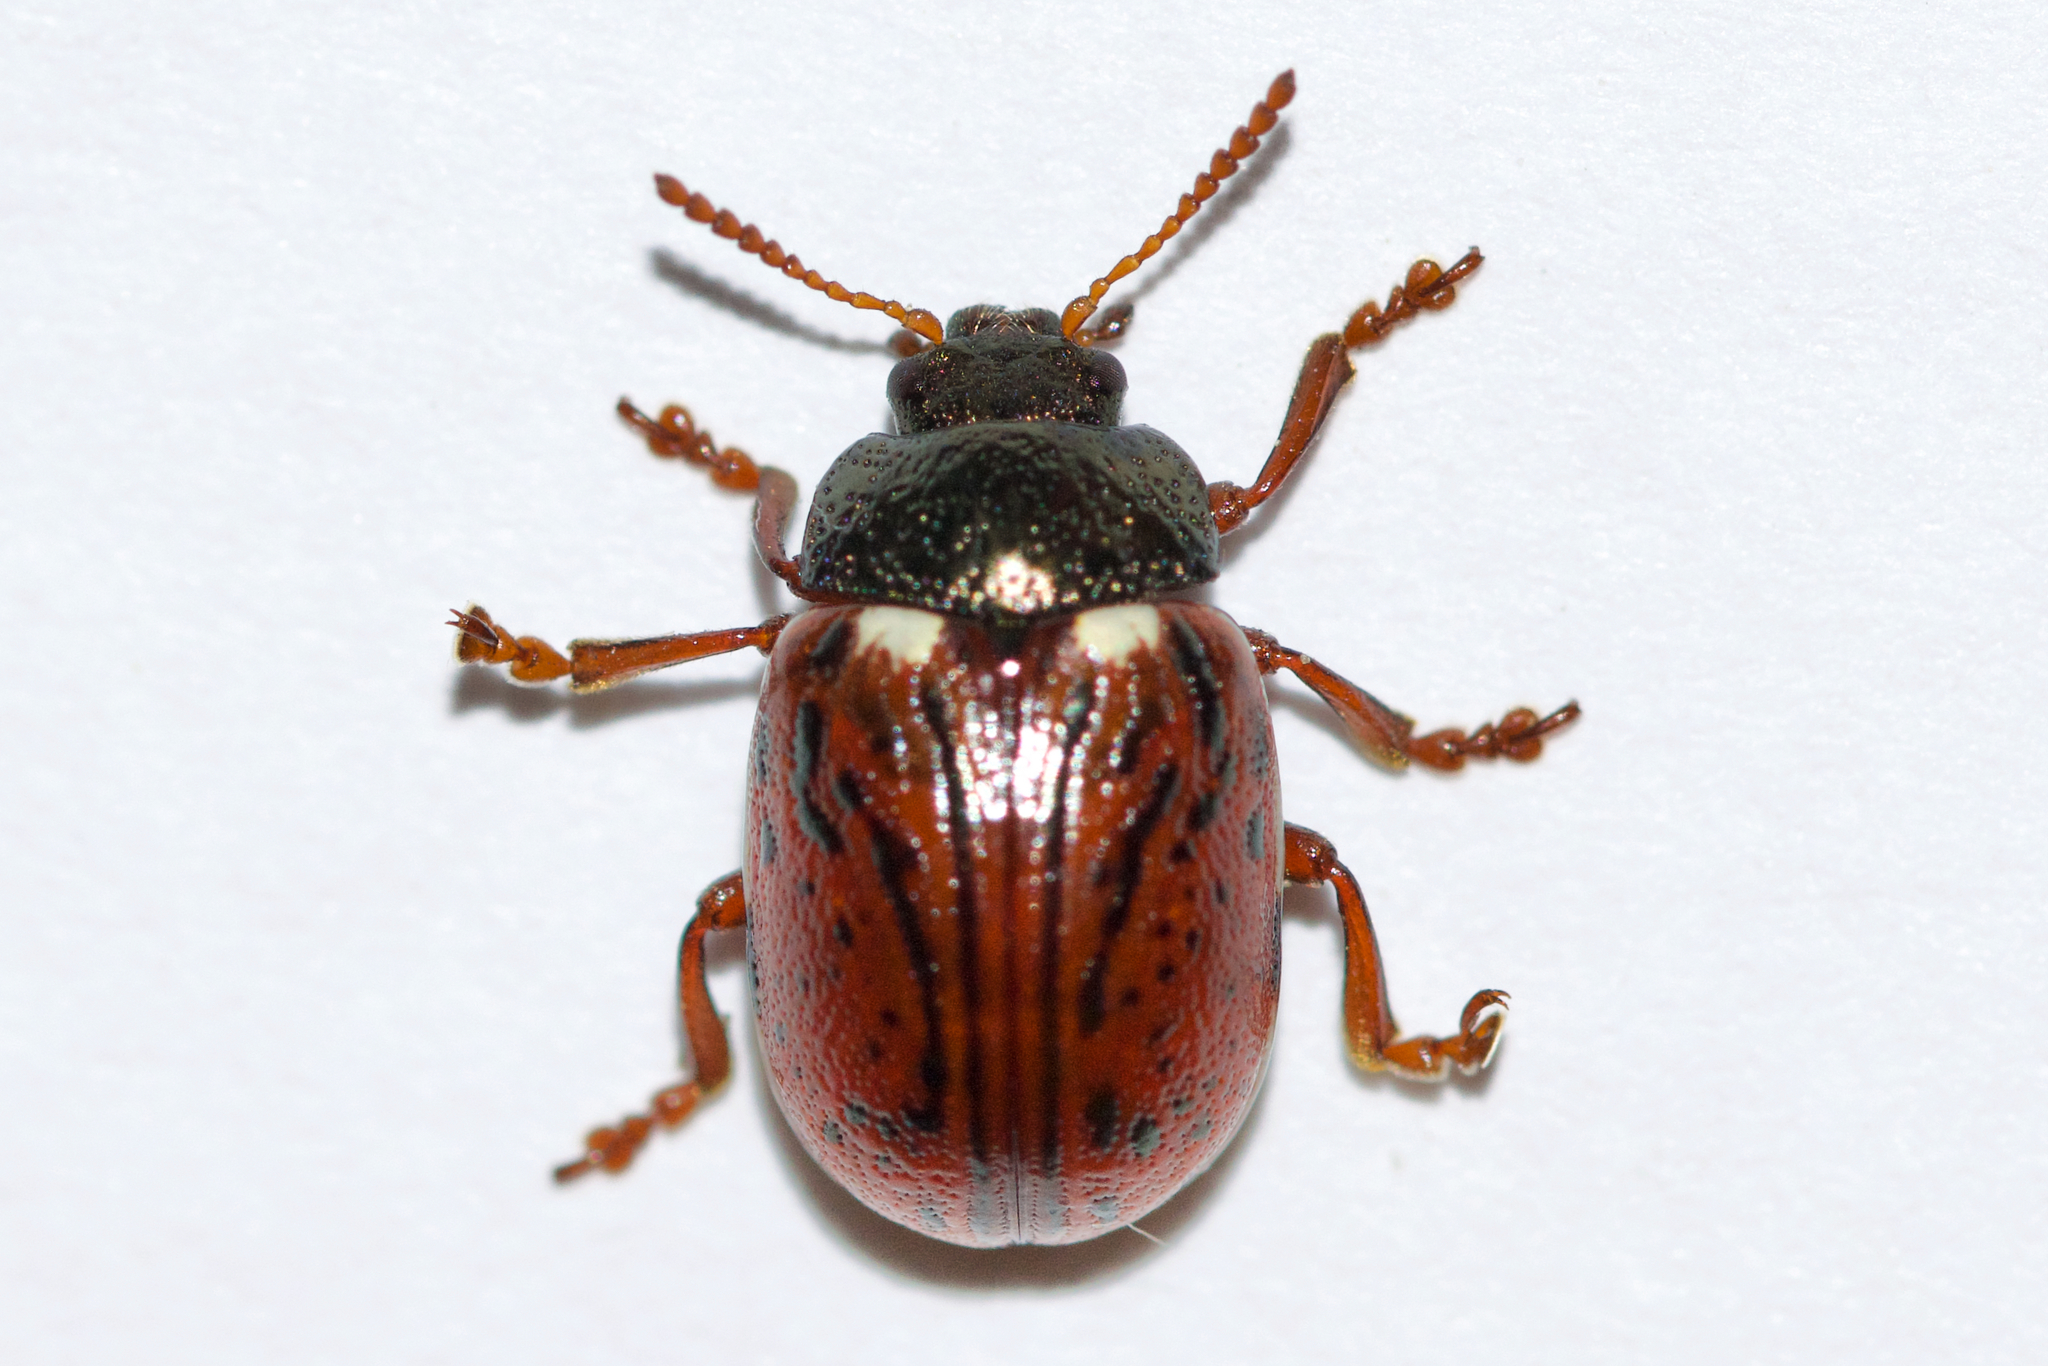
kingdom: Animalia
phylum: Arthropoda
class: Insecta
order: Coleoptera
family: Chrysomelidae
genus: Calligrapha
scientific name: Calligrapha alni
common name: Russet alder leaf beetle
